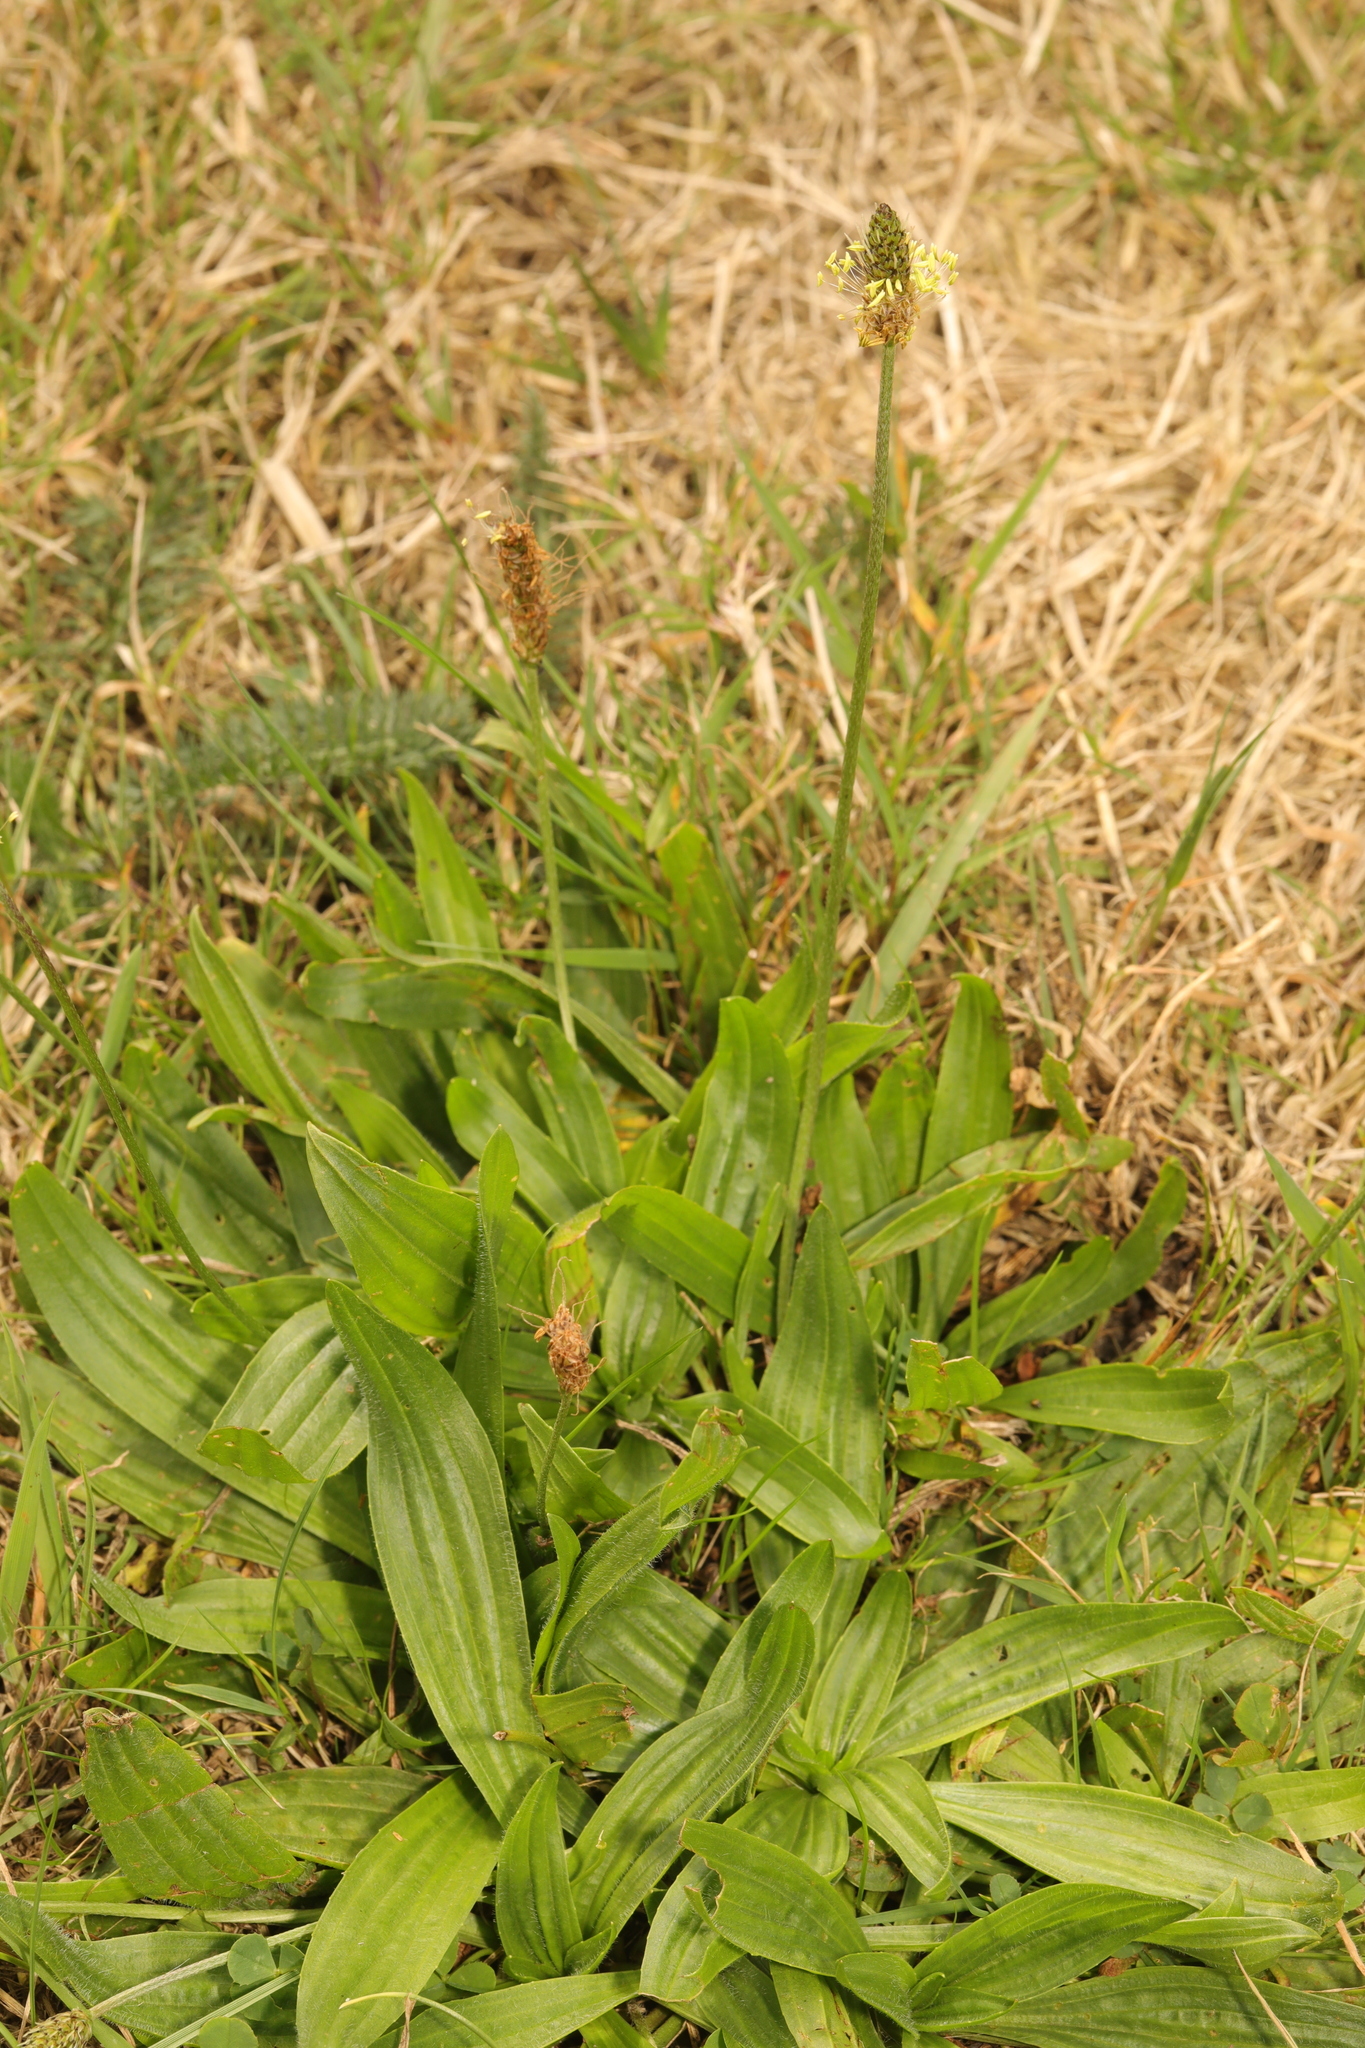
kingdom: Plantae
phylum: Tracheophyta
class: Magnoliopsida
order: Lamiales
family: Plantaginaceae
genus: Plantago
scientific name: Plantago lanceolata
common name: Ribwort plantain
